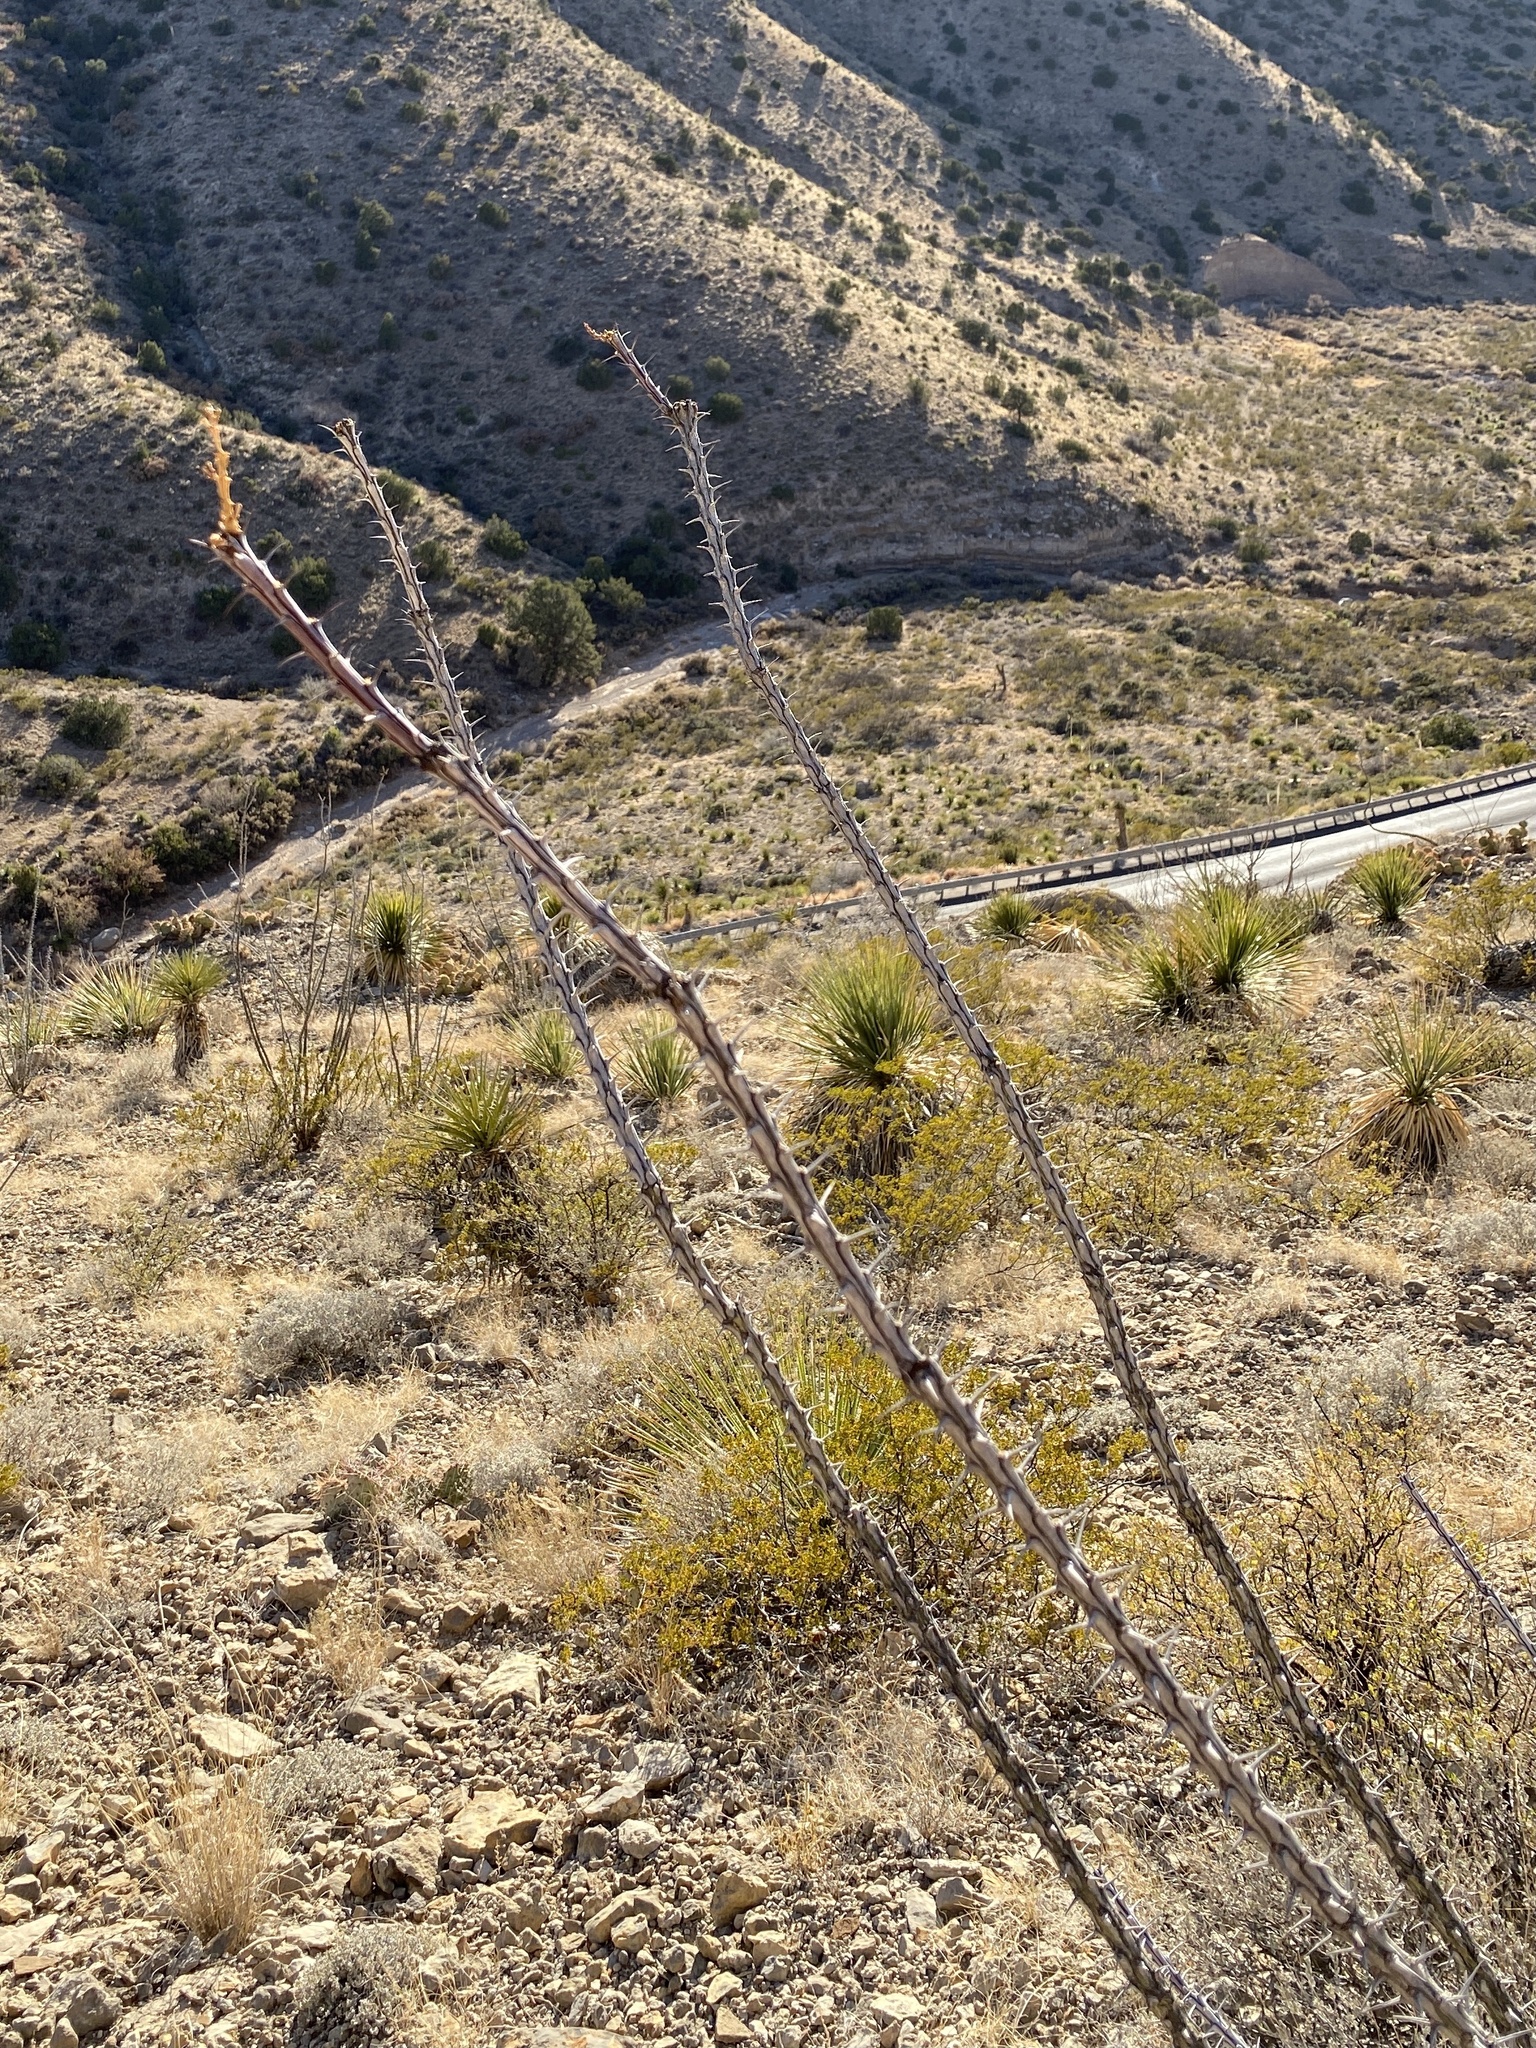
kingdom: Plantae
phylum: Tracheophyta
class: Magnoliopsida
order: Ericales
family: Fouquieriaceae
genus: Fouquieria
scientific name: Fouquieria splendens
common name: Vine-cactus
